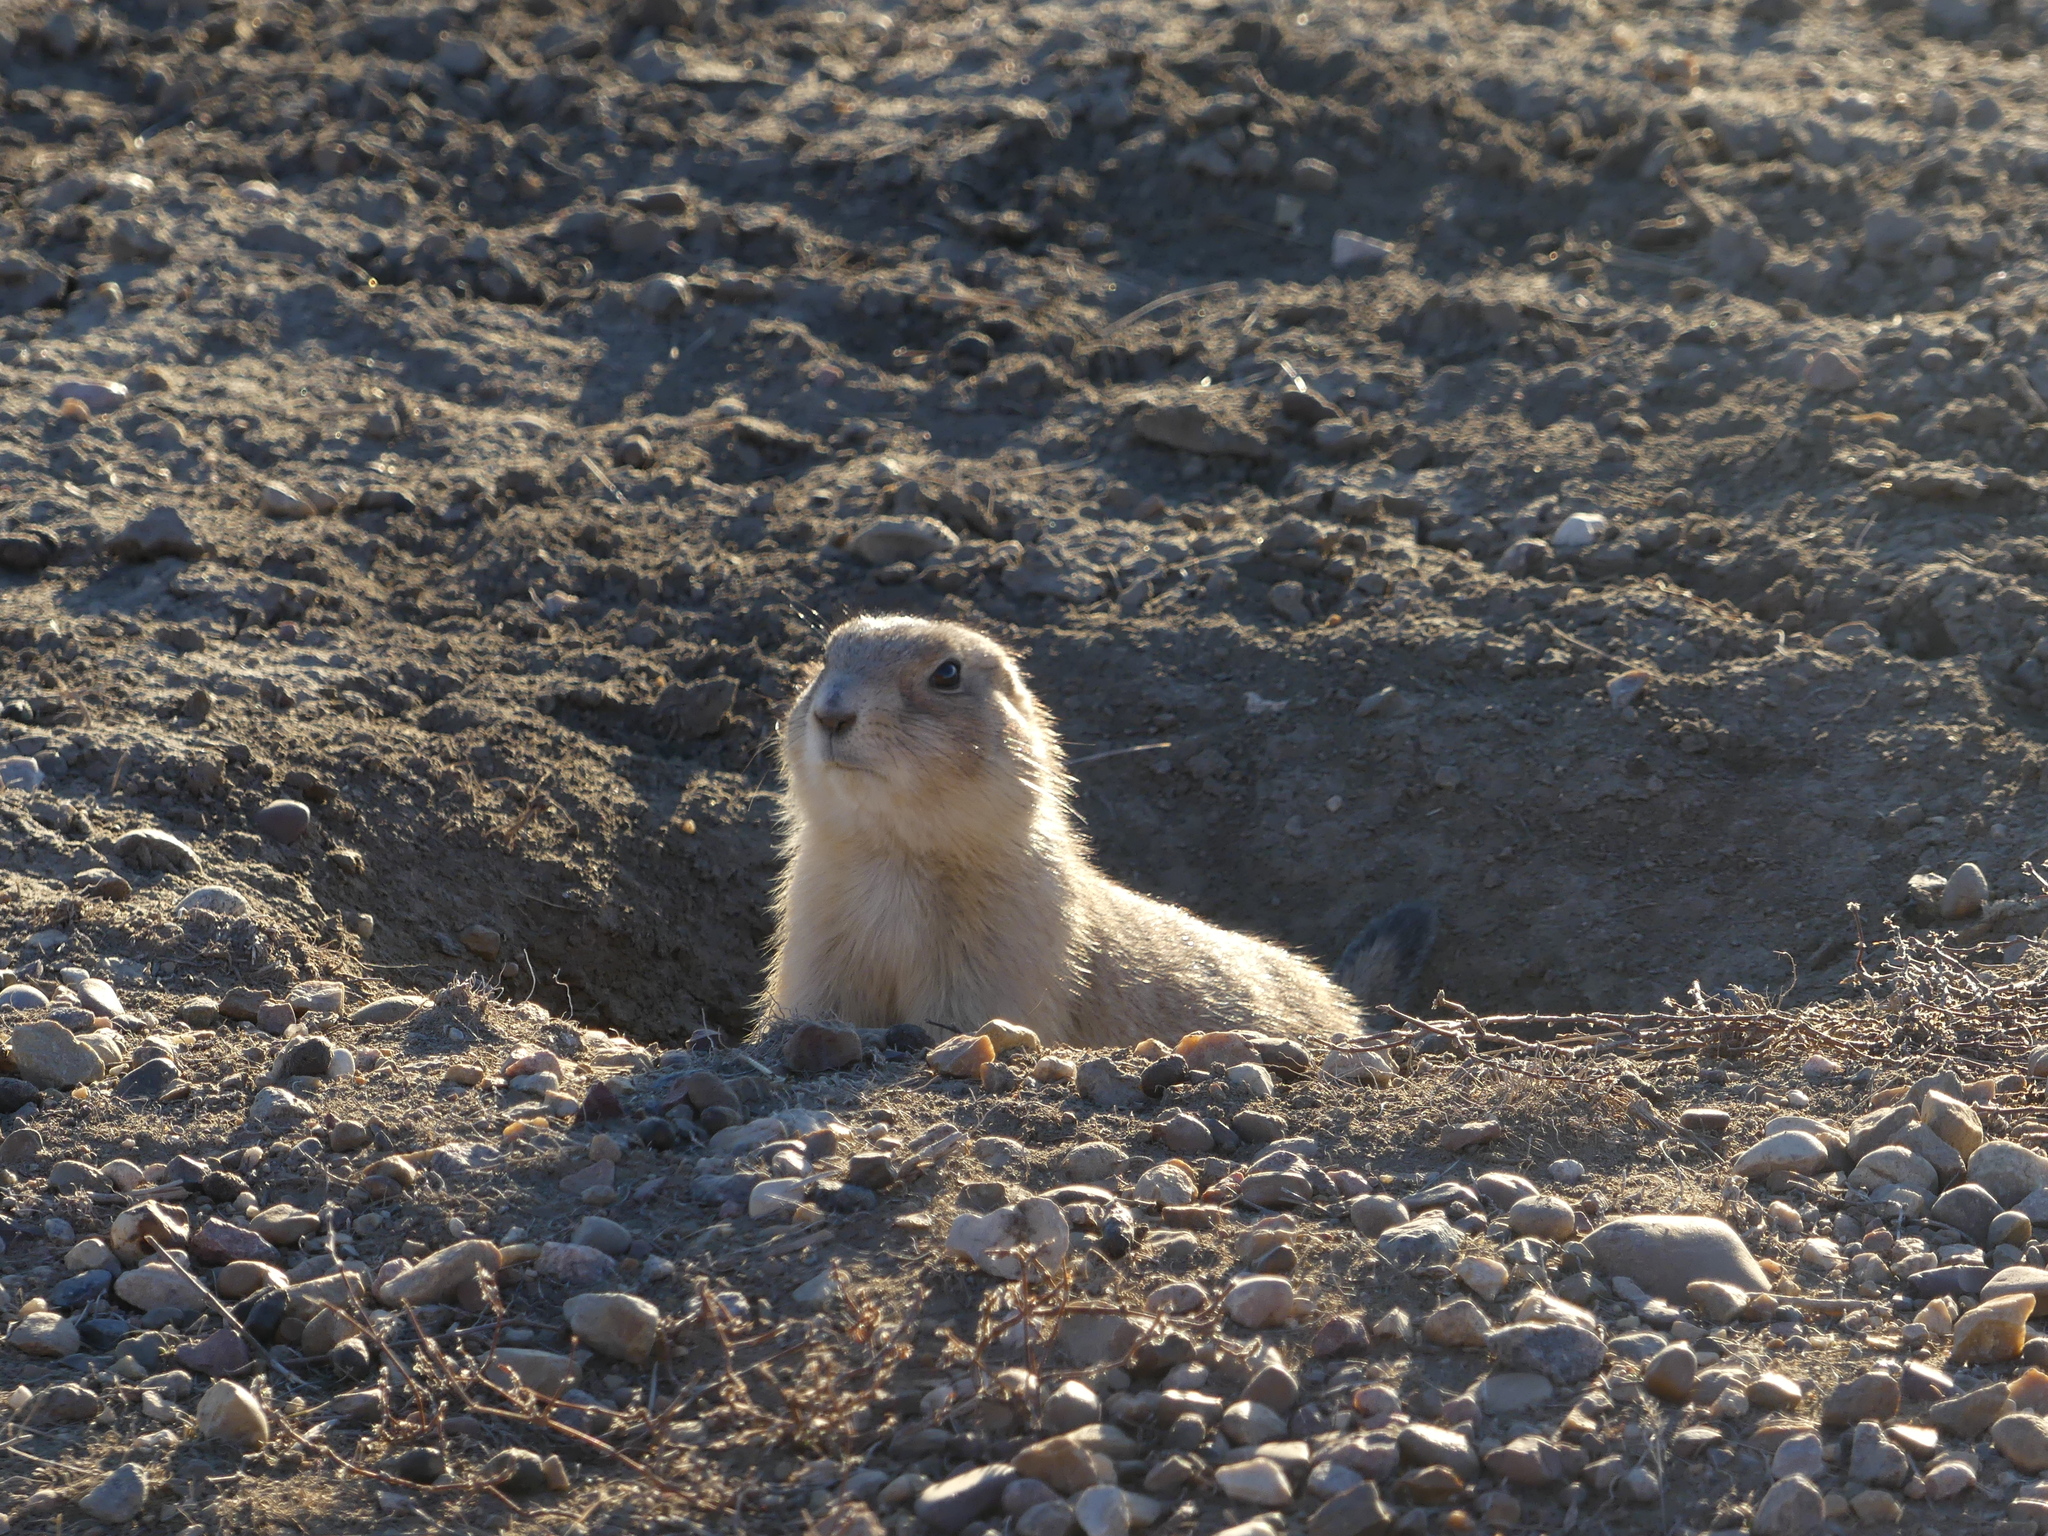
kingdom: Animalia
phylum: Chordata
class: Mammalia
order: Rodentia
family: Sciuridae
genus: Cynomys
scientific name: Cynomys ludovicianus
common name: Black-tailed prairie dog
